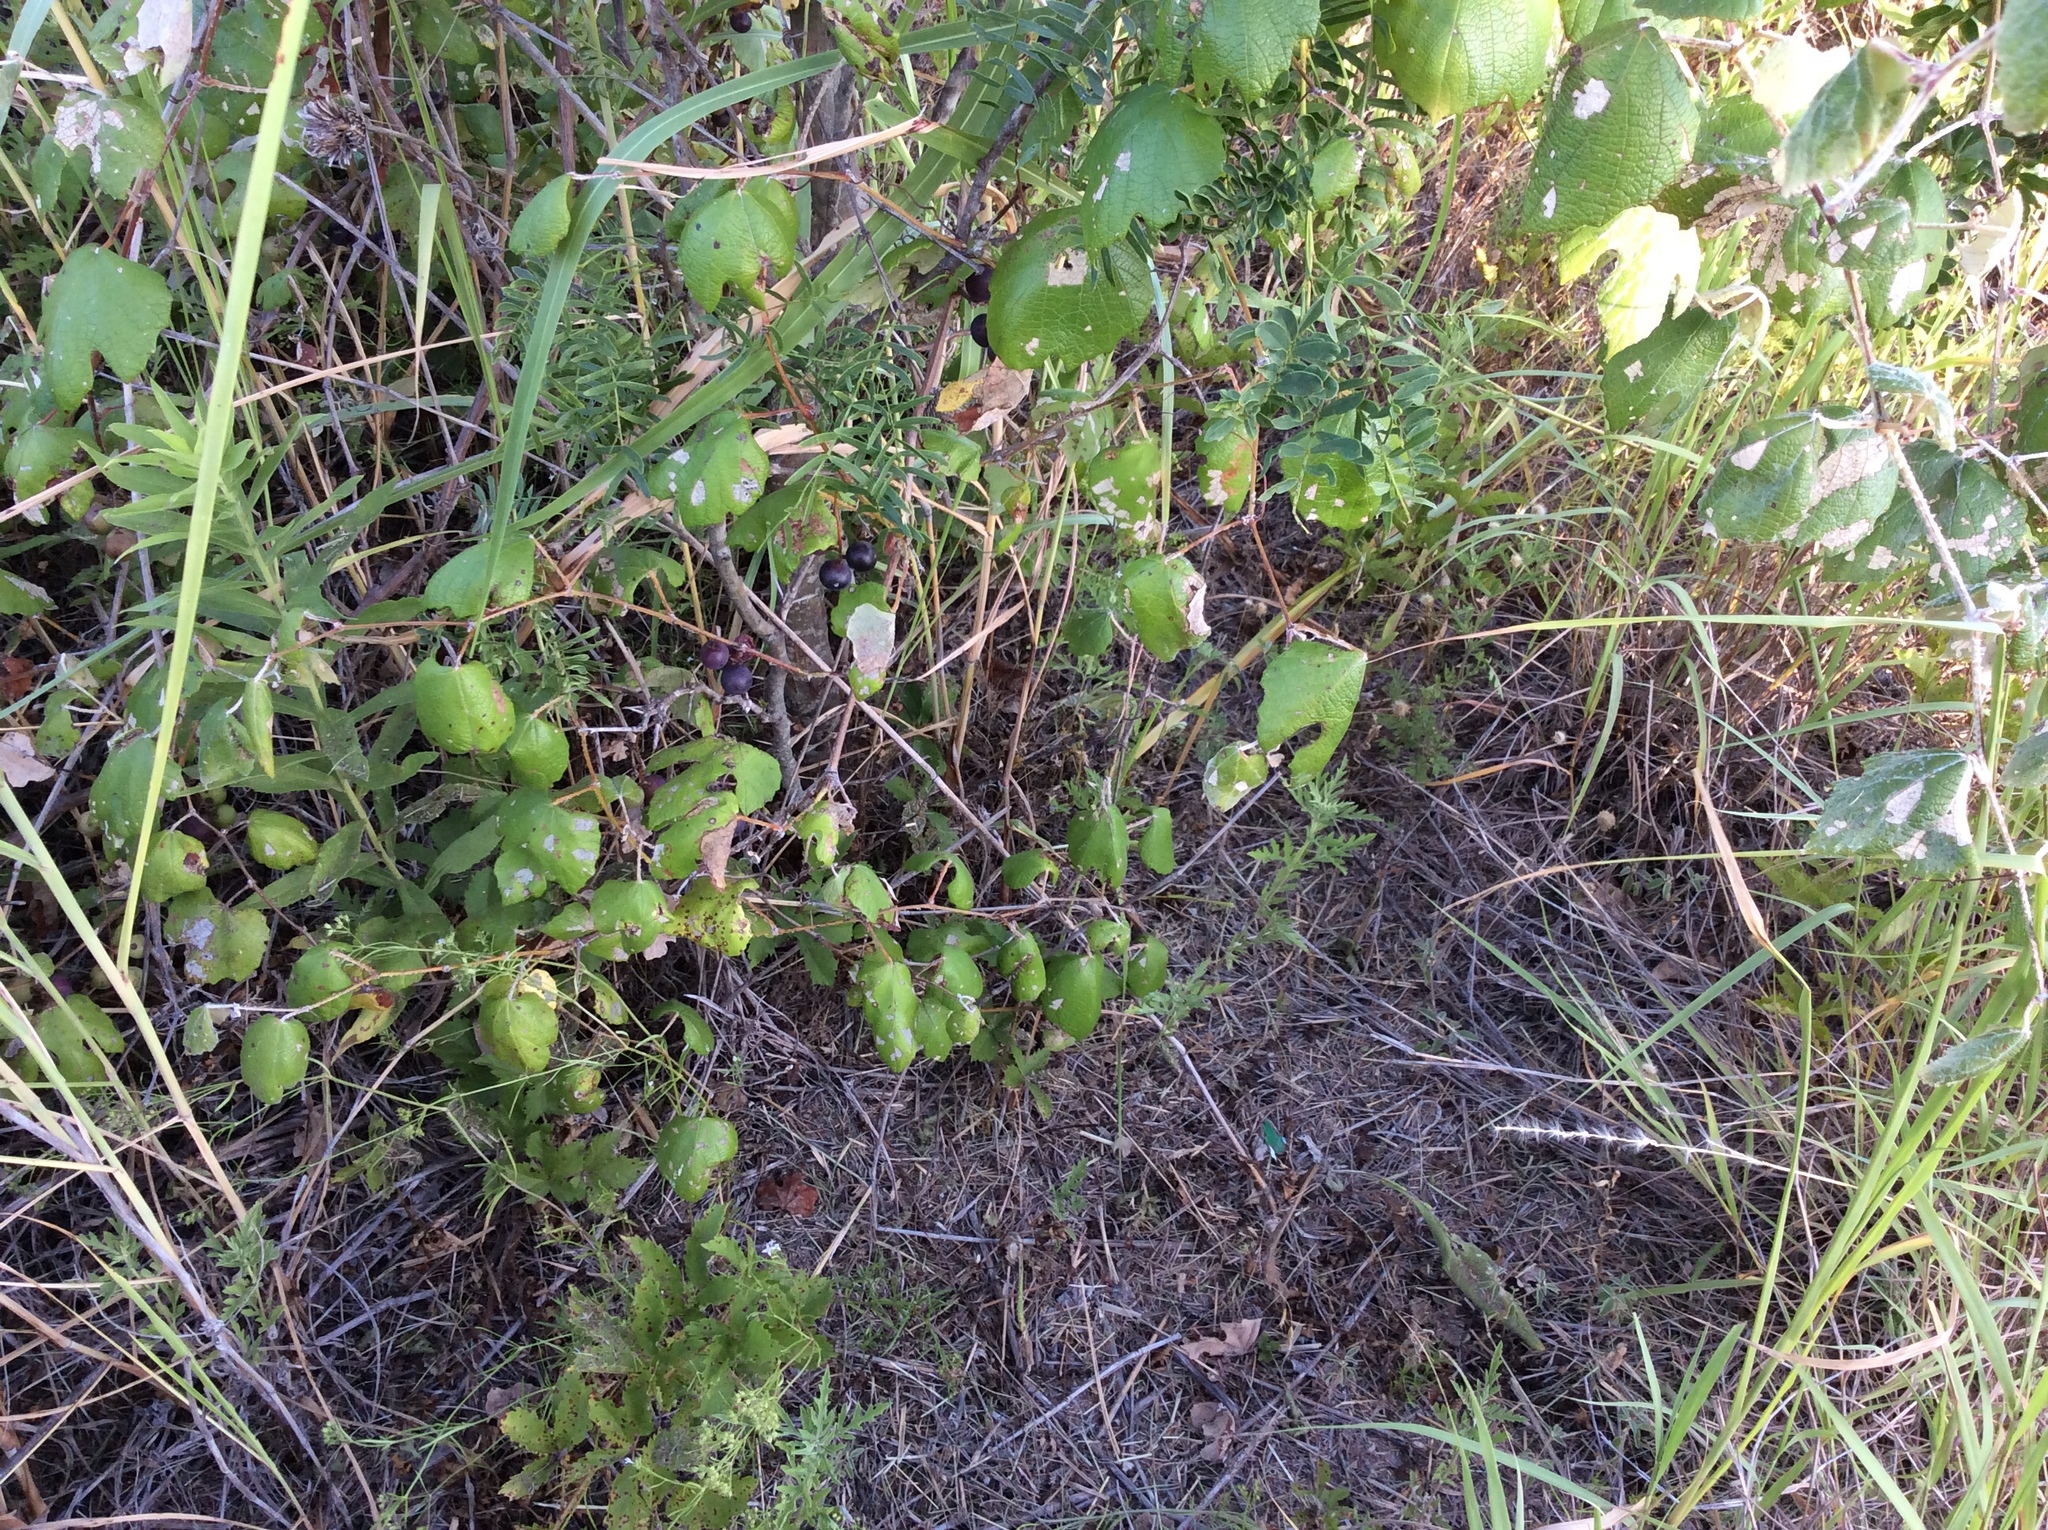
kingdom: Plantae
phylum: Tracheophyta
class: Magnoliopsida
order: Vitales
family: Vitaceae
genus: Vitis
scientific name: Vitis mustangensis
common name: Mustang grape
